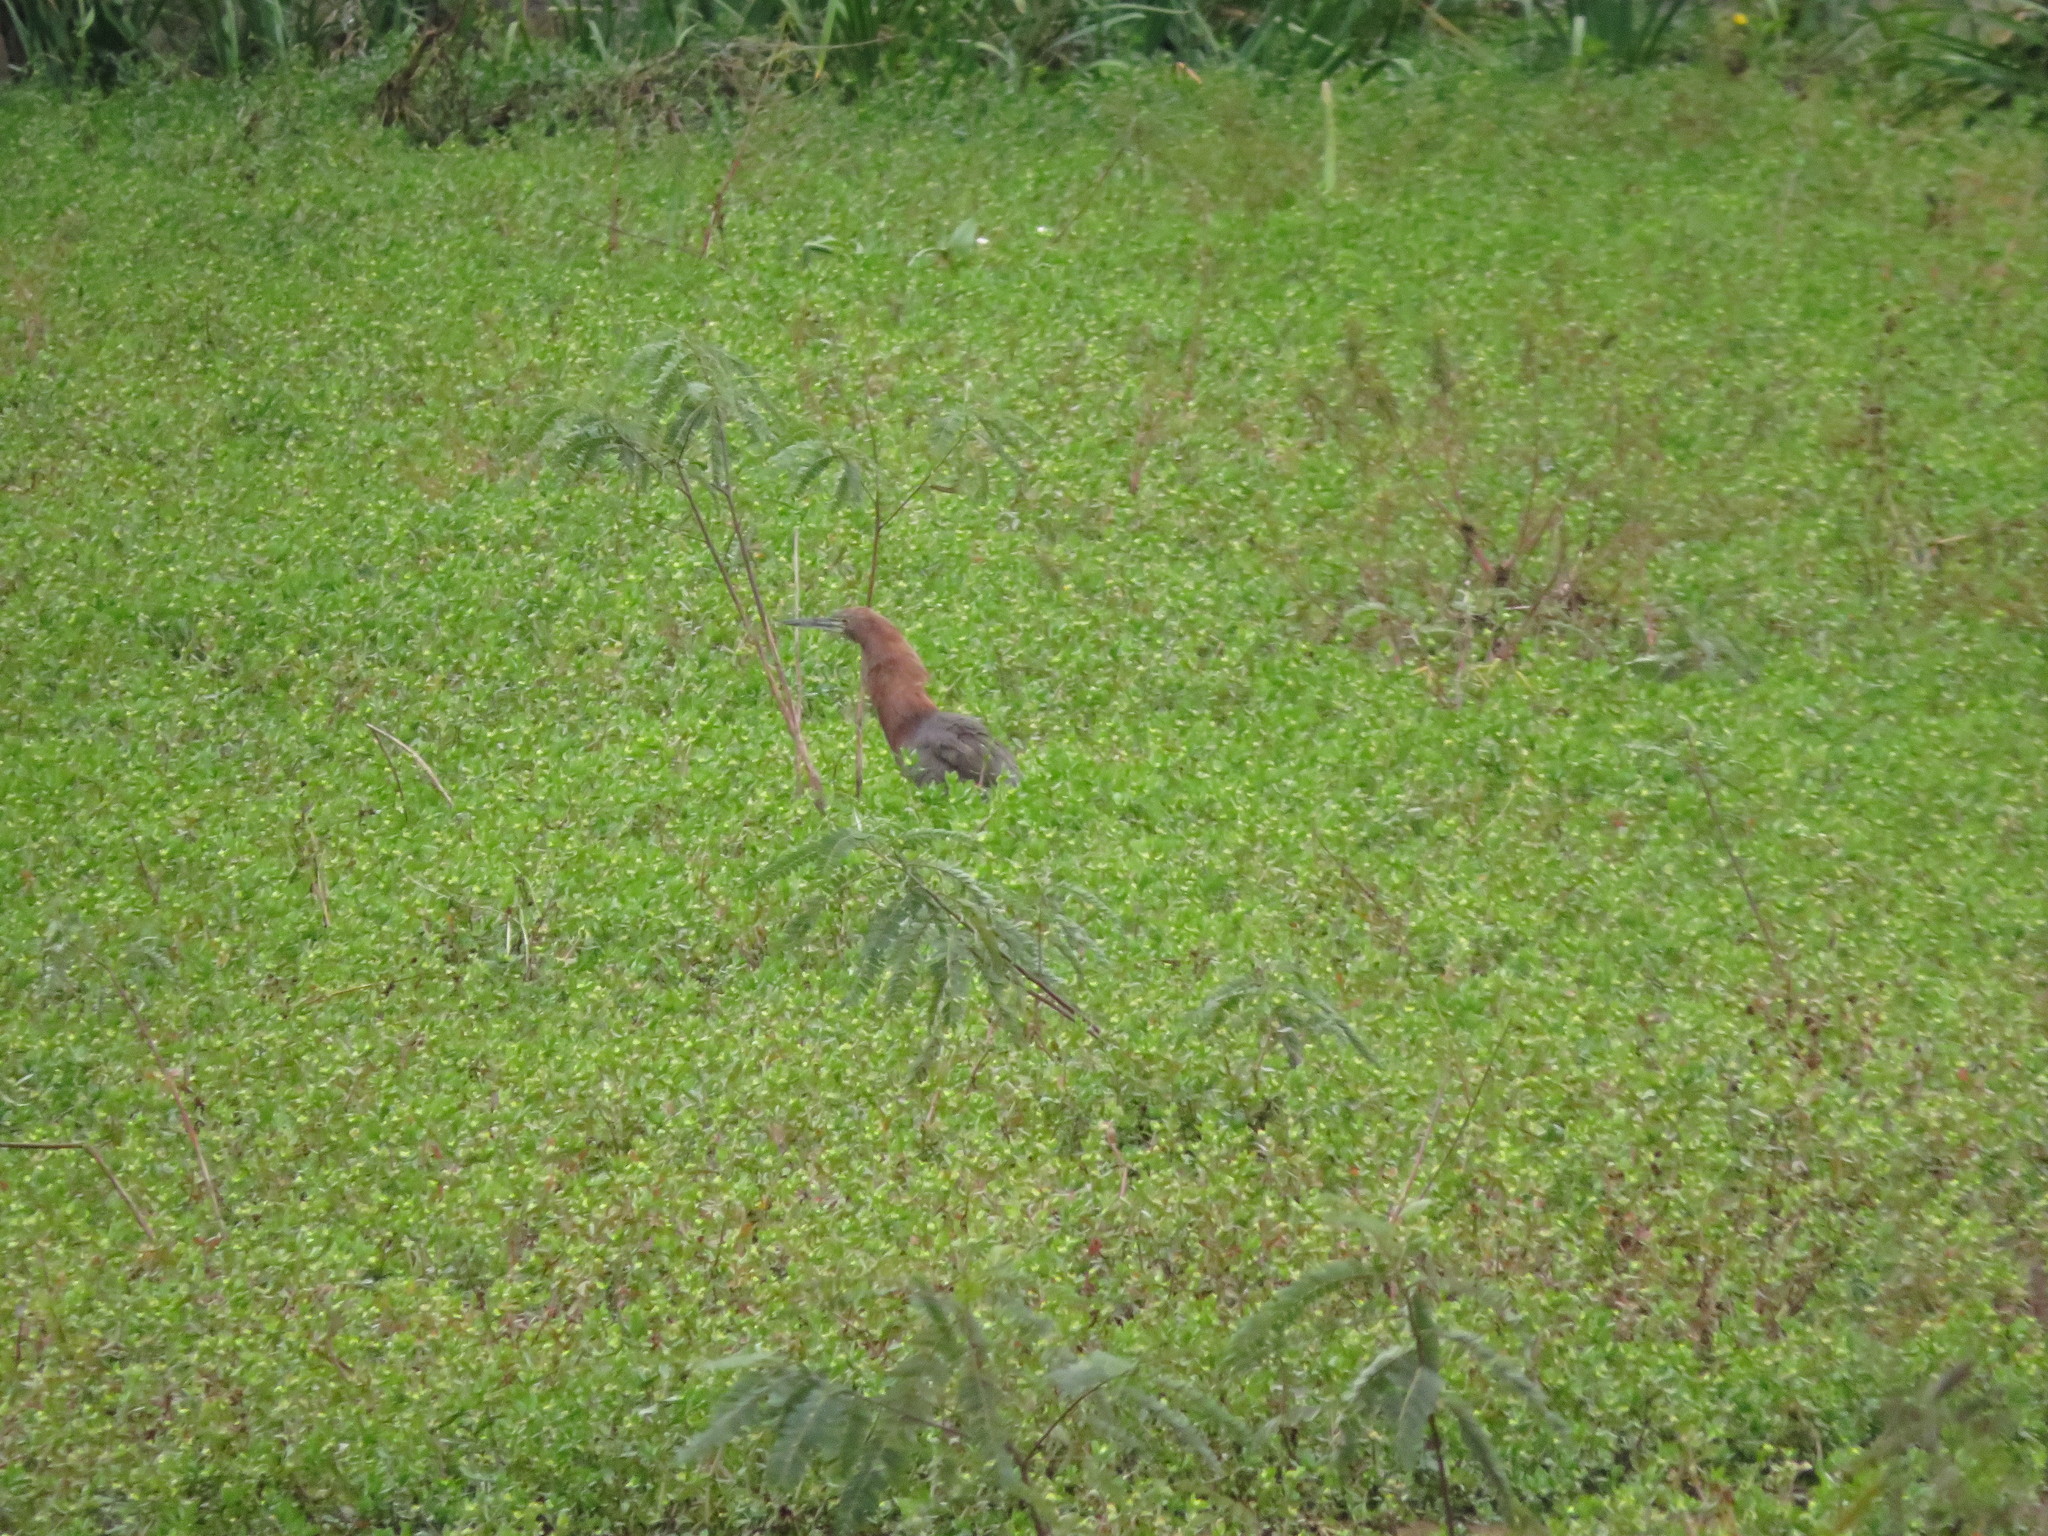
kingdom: Animalia
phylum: Chordata
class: Aves
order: Pelecaniformes
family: Ardeidae
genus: Tigrisoma
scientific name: Tigrisoma lineatum
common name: Rufescent tiger-heron
